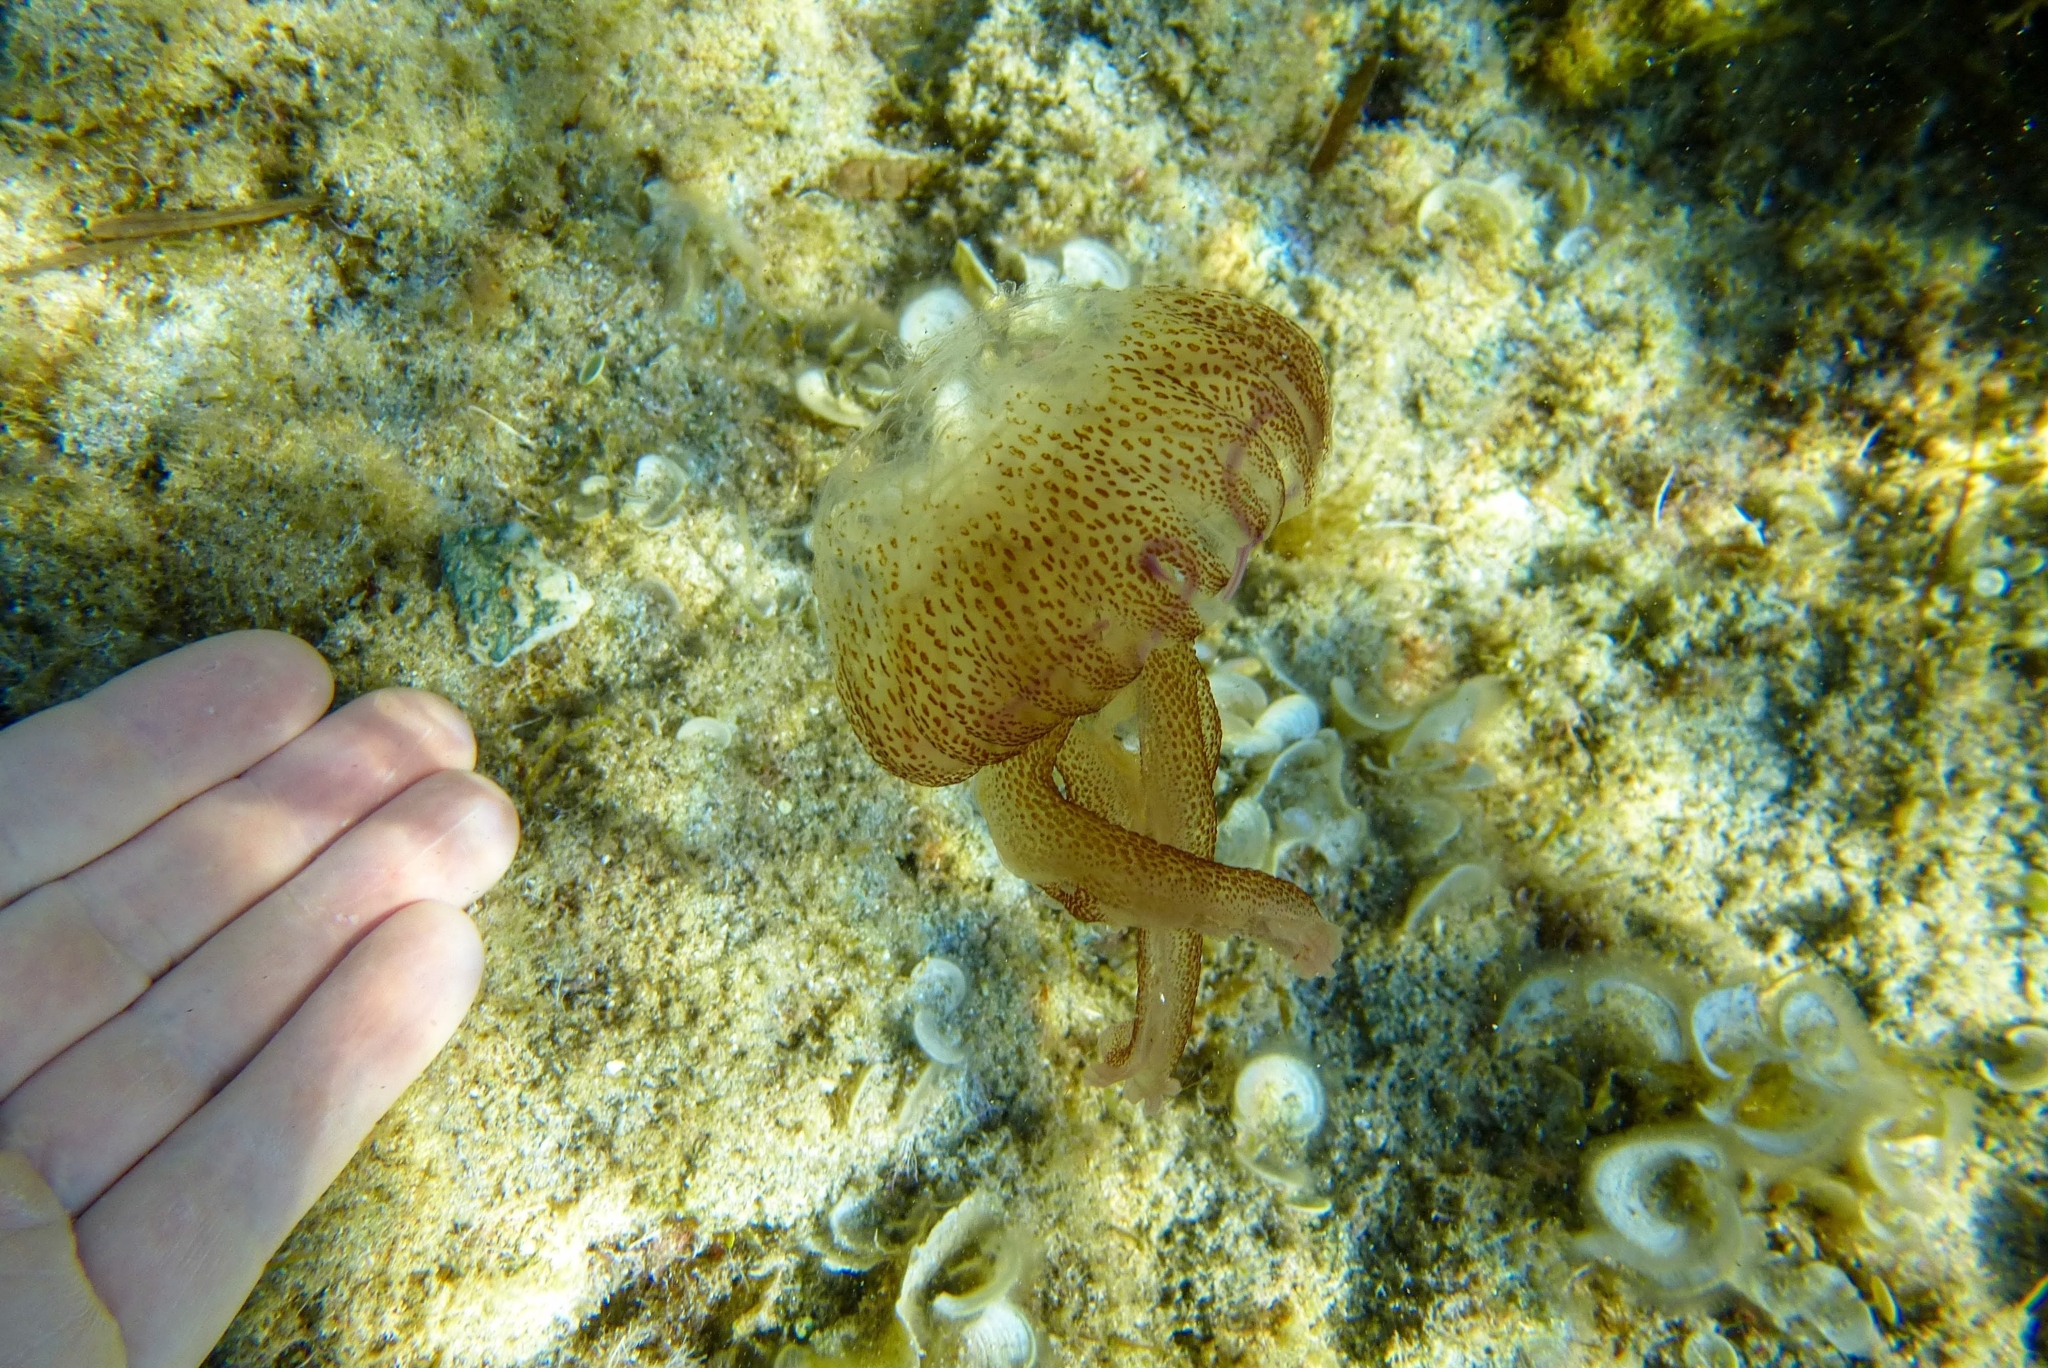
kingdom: Animalia
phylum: Cnidaria
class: Scyphozoa
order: Semaeostomeae
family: Pelagiidae
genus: Pelagia
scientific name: Pelagia noctiluca
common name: Mauve stinger
